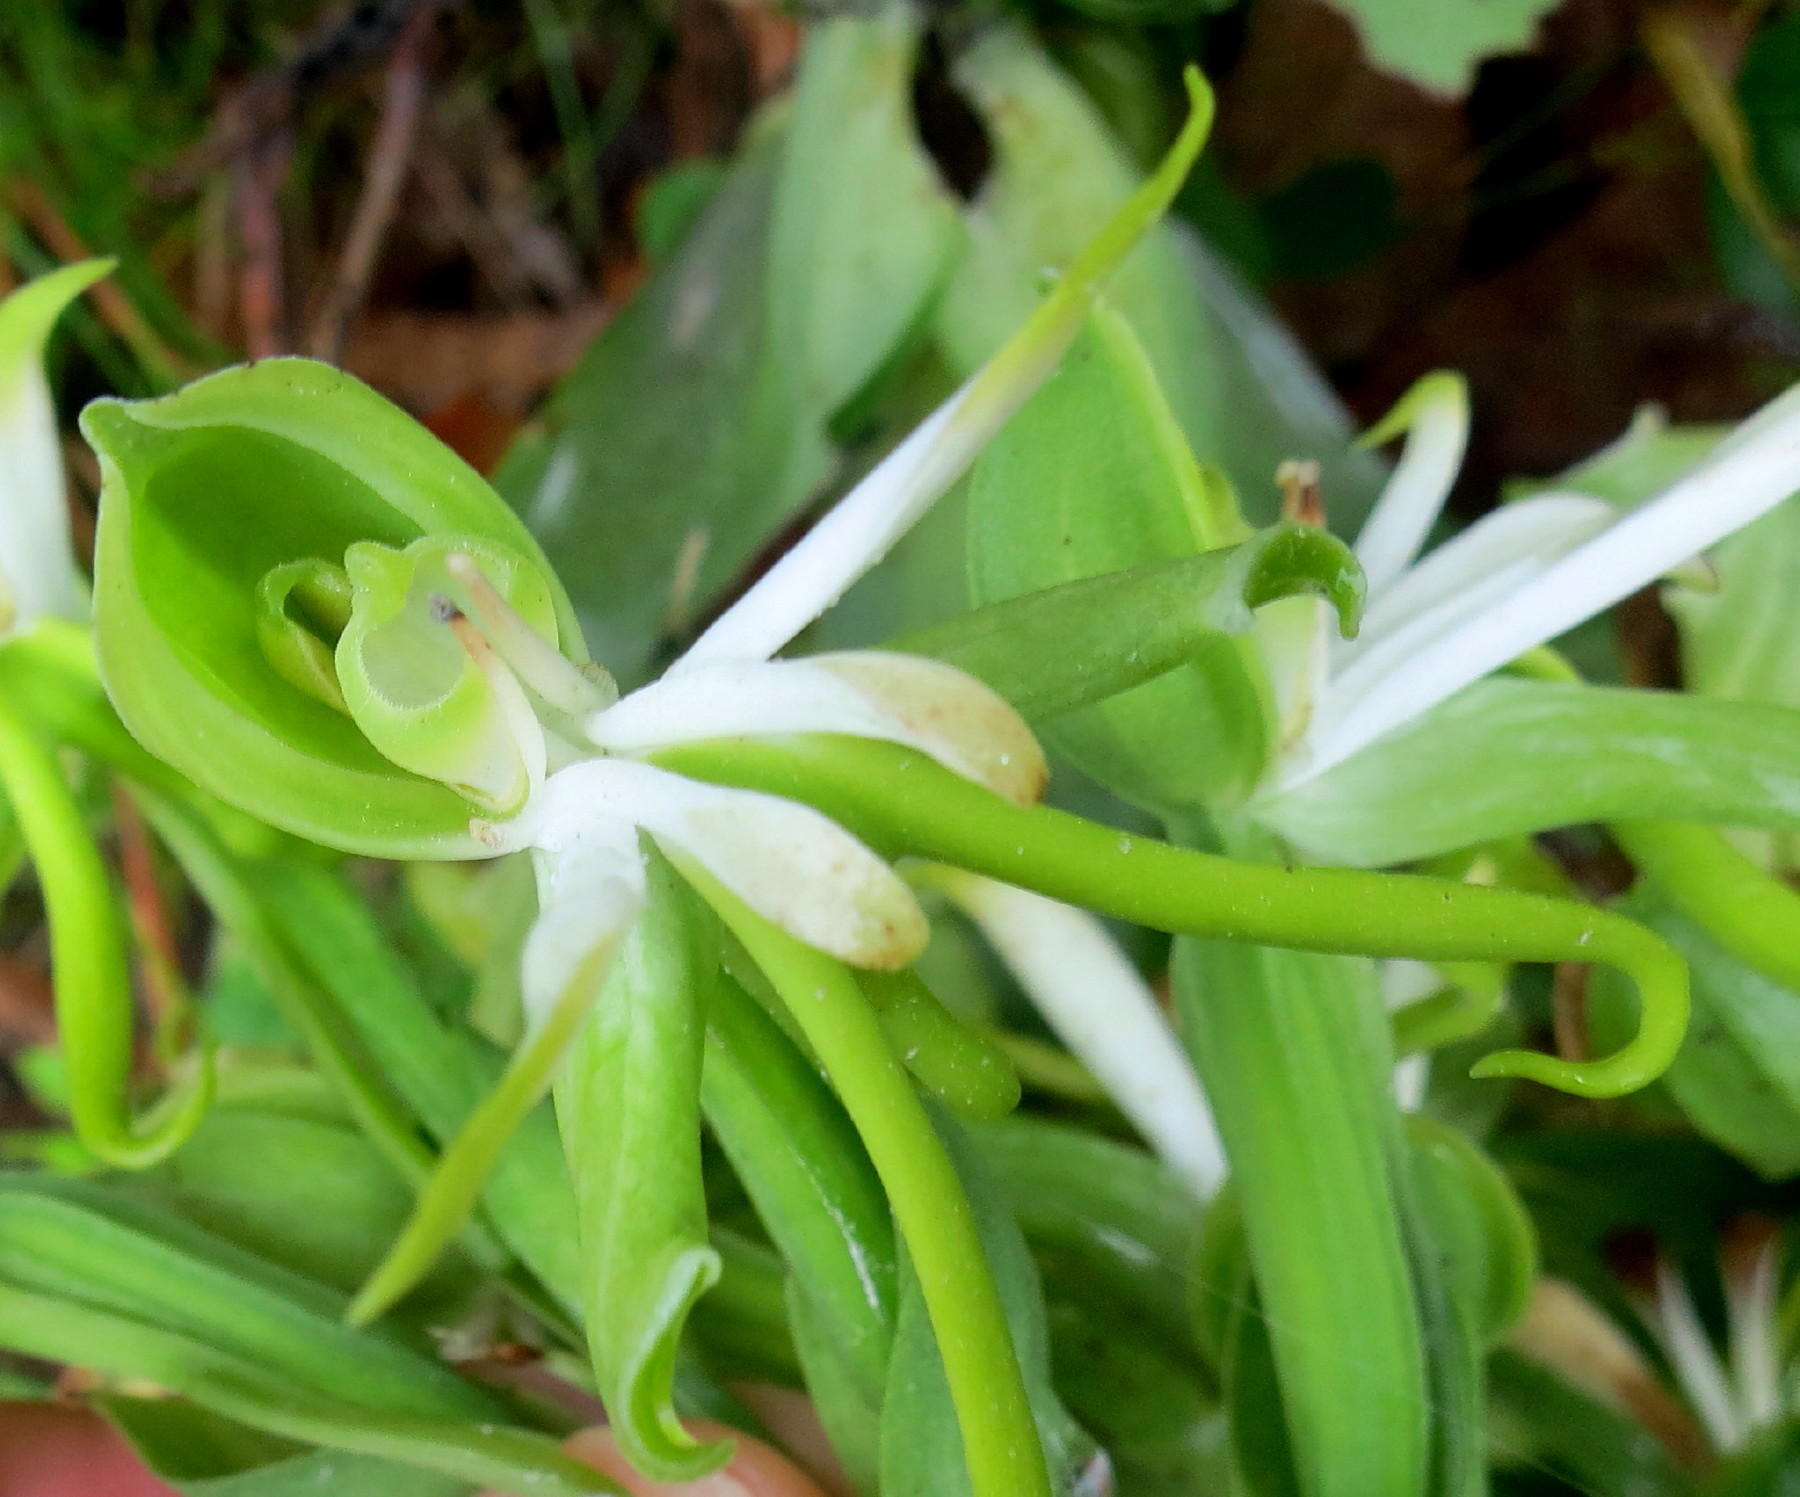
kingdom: Plantae
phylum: Tracheophyta
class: Liliopsida
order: Asparagales
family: Orchidaceae
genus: Bonatea
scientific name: Bonatea speciosa
